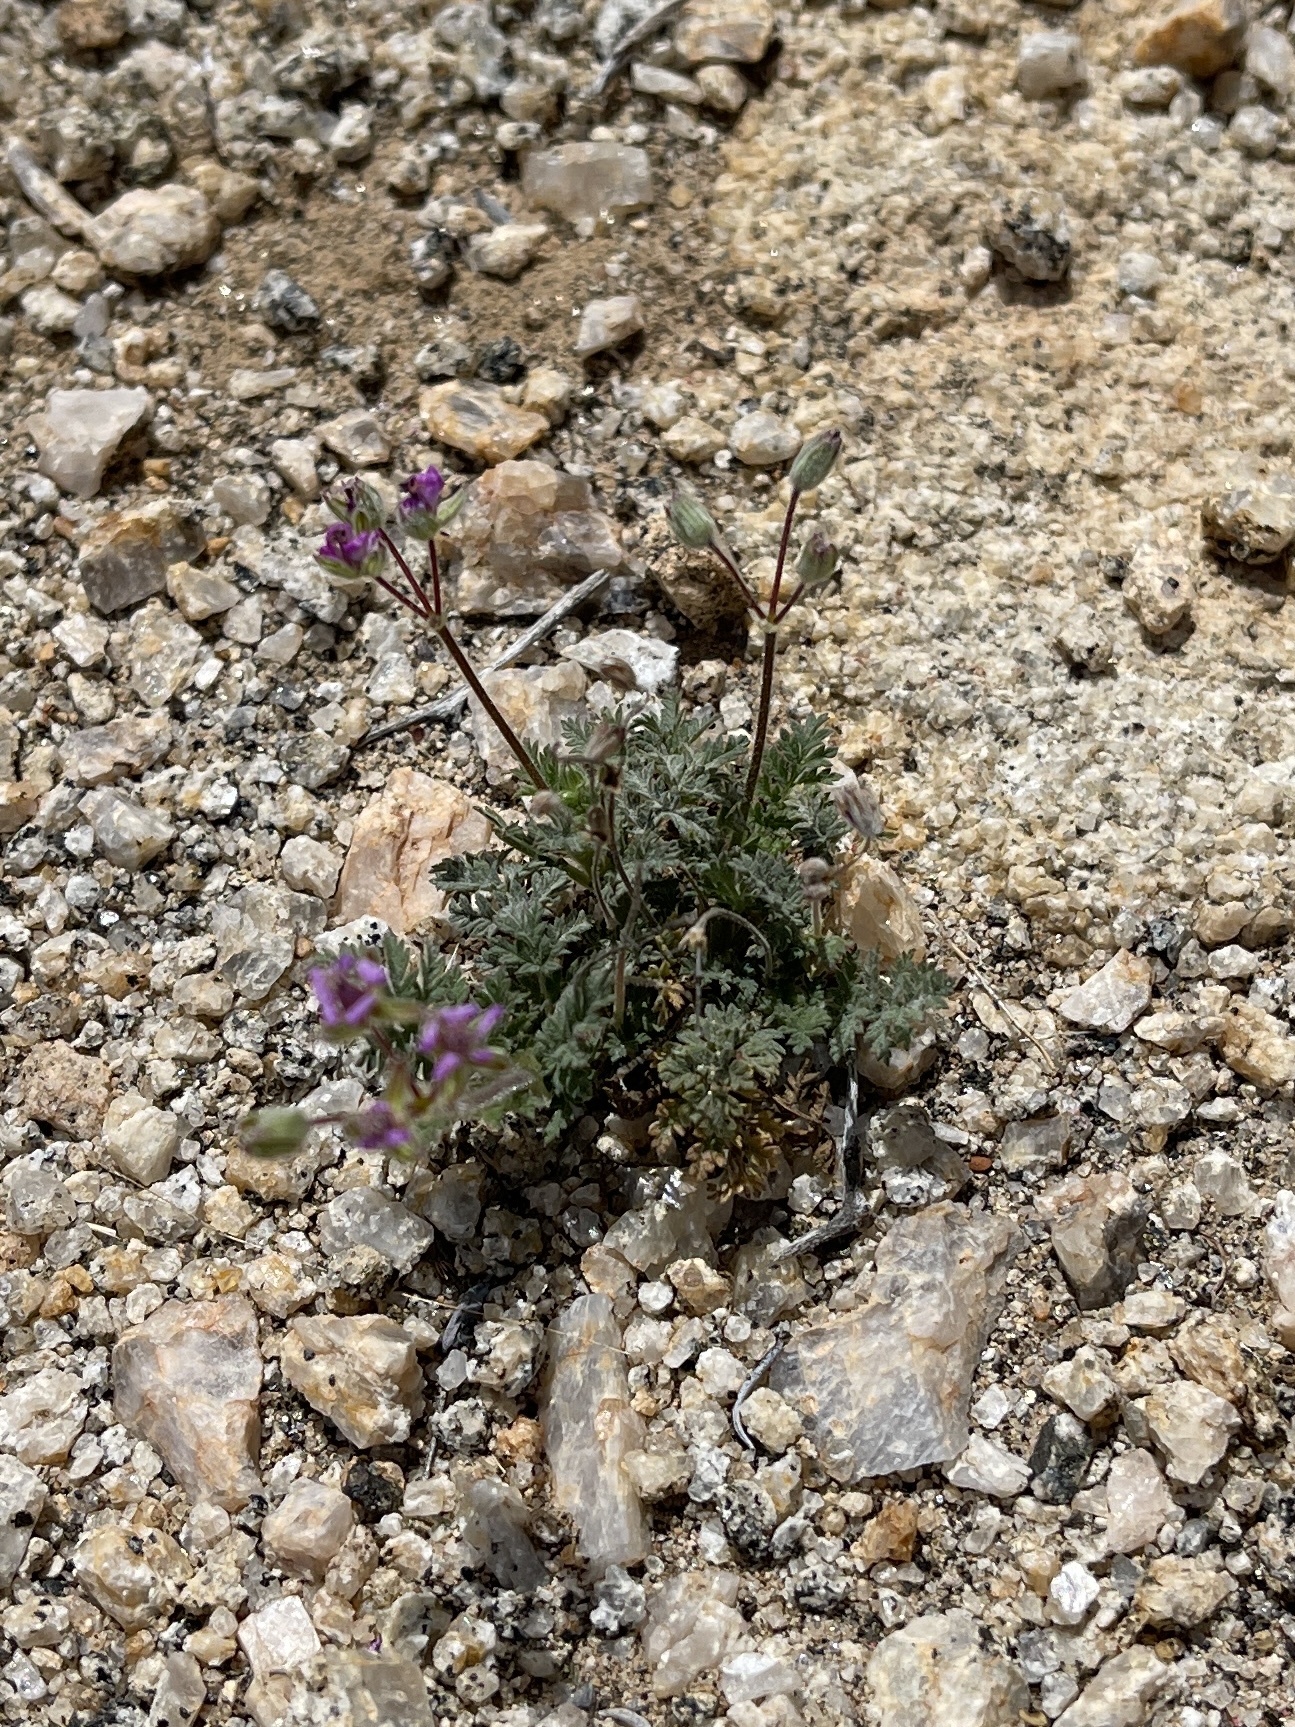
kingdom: Plantae
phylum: Tracheophyta
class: Magnoliopsida
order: Geraniales
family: Geraniaceae
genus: Erodium
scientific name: Erodium cicutarium
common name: Common stork's-bill
